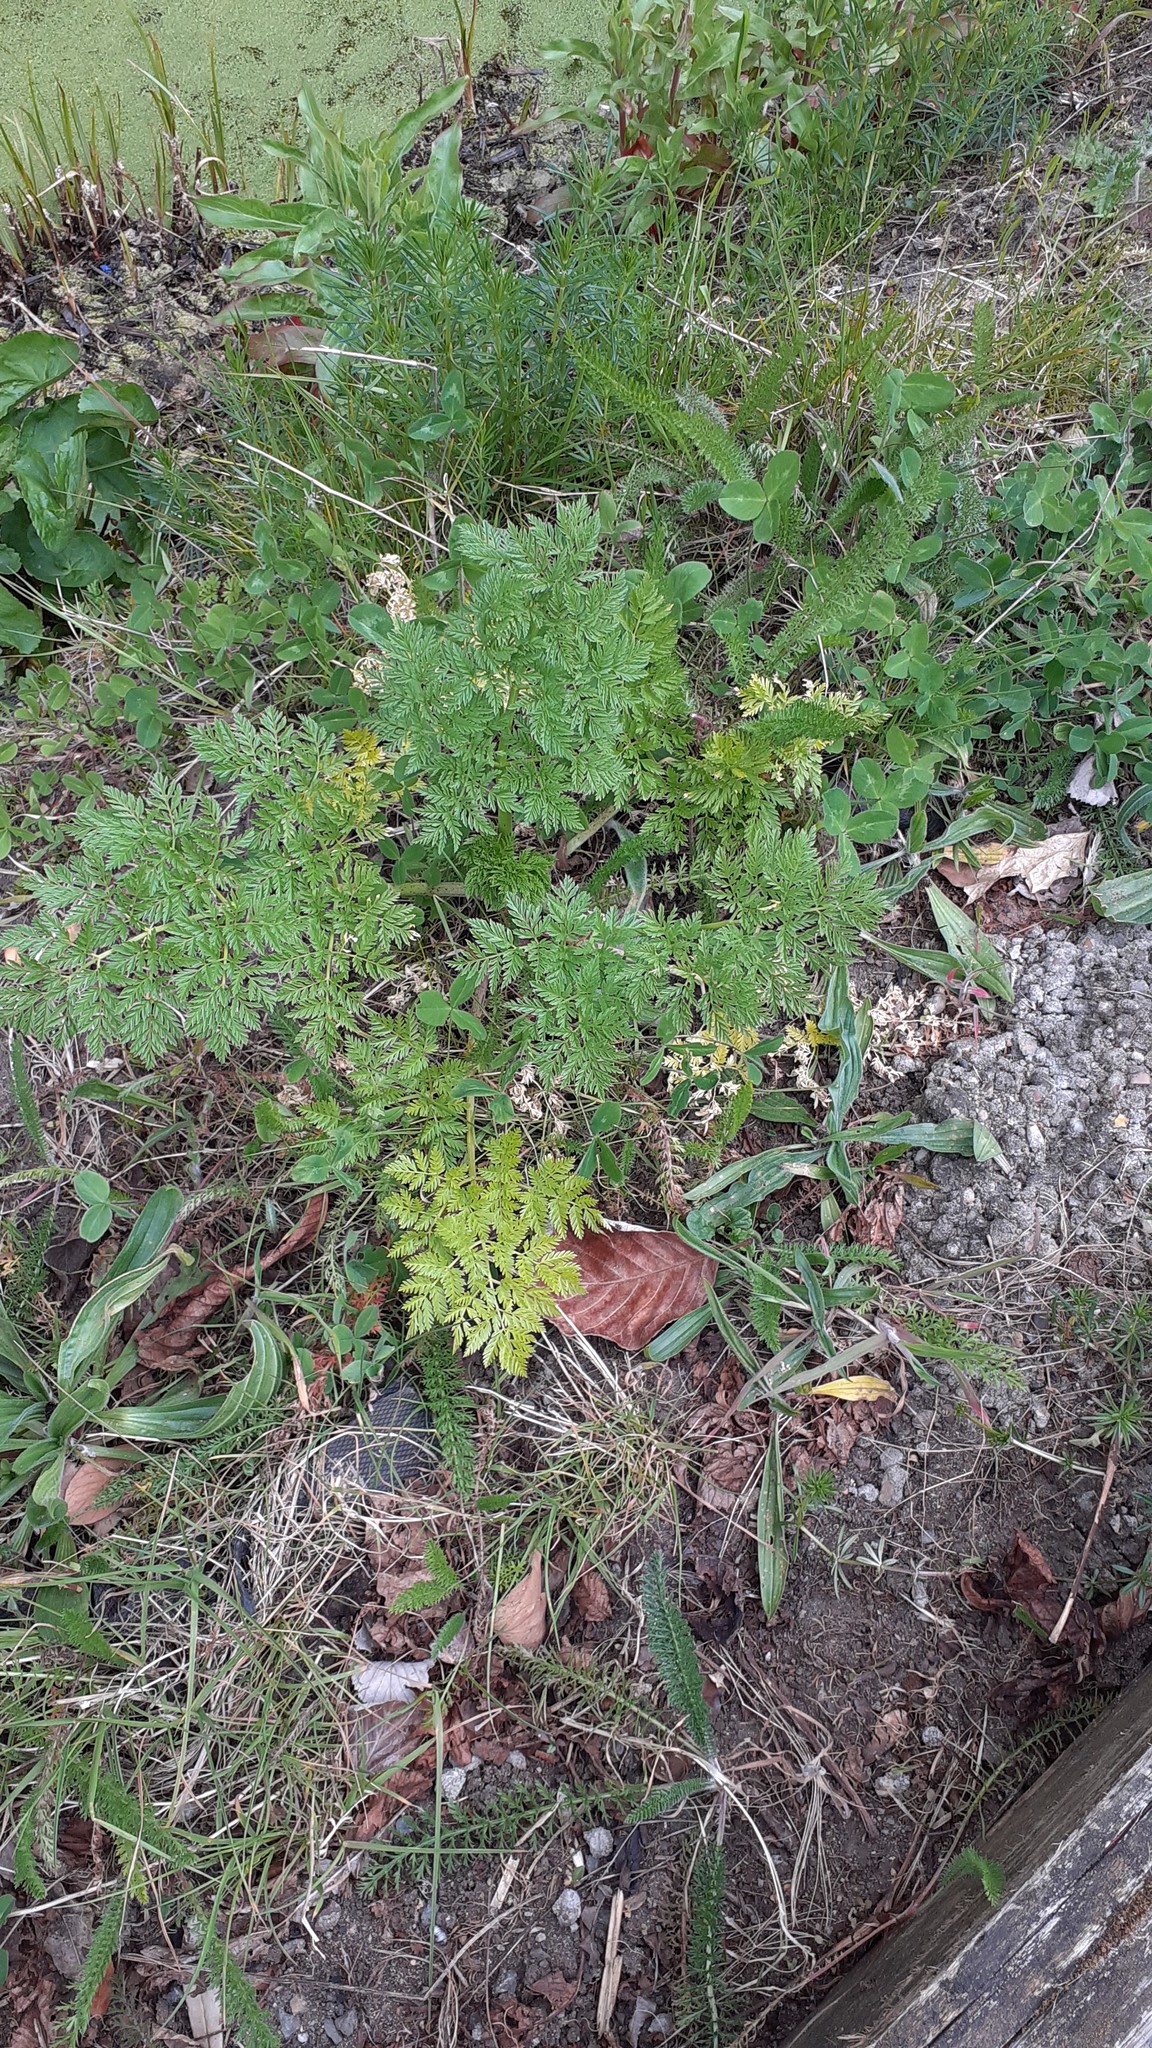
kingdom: Plantae
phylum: Tracheophyta
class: Magnoliopsida
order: Apiales
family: Apiaceae
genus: Conium
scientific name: Conium maculatum
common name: Hemlock
